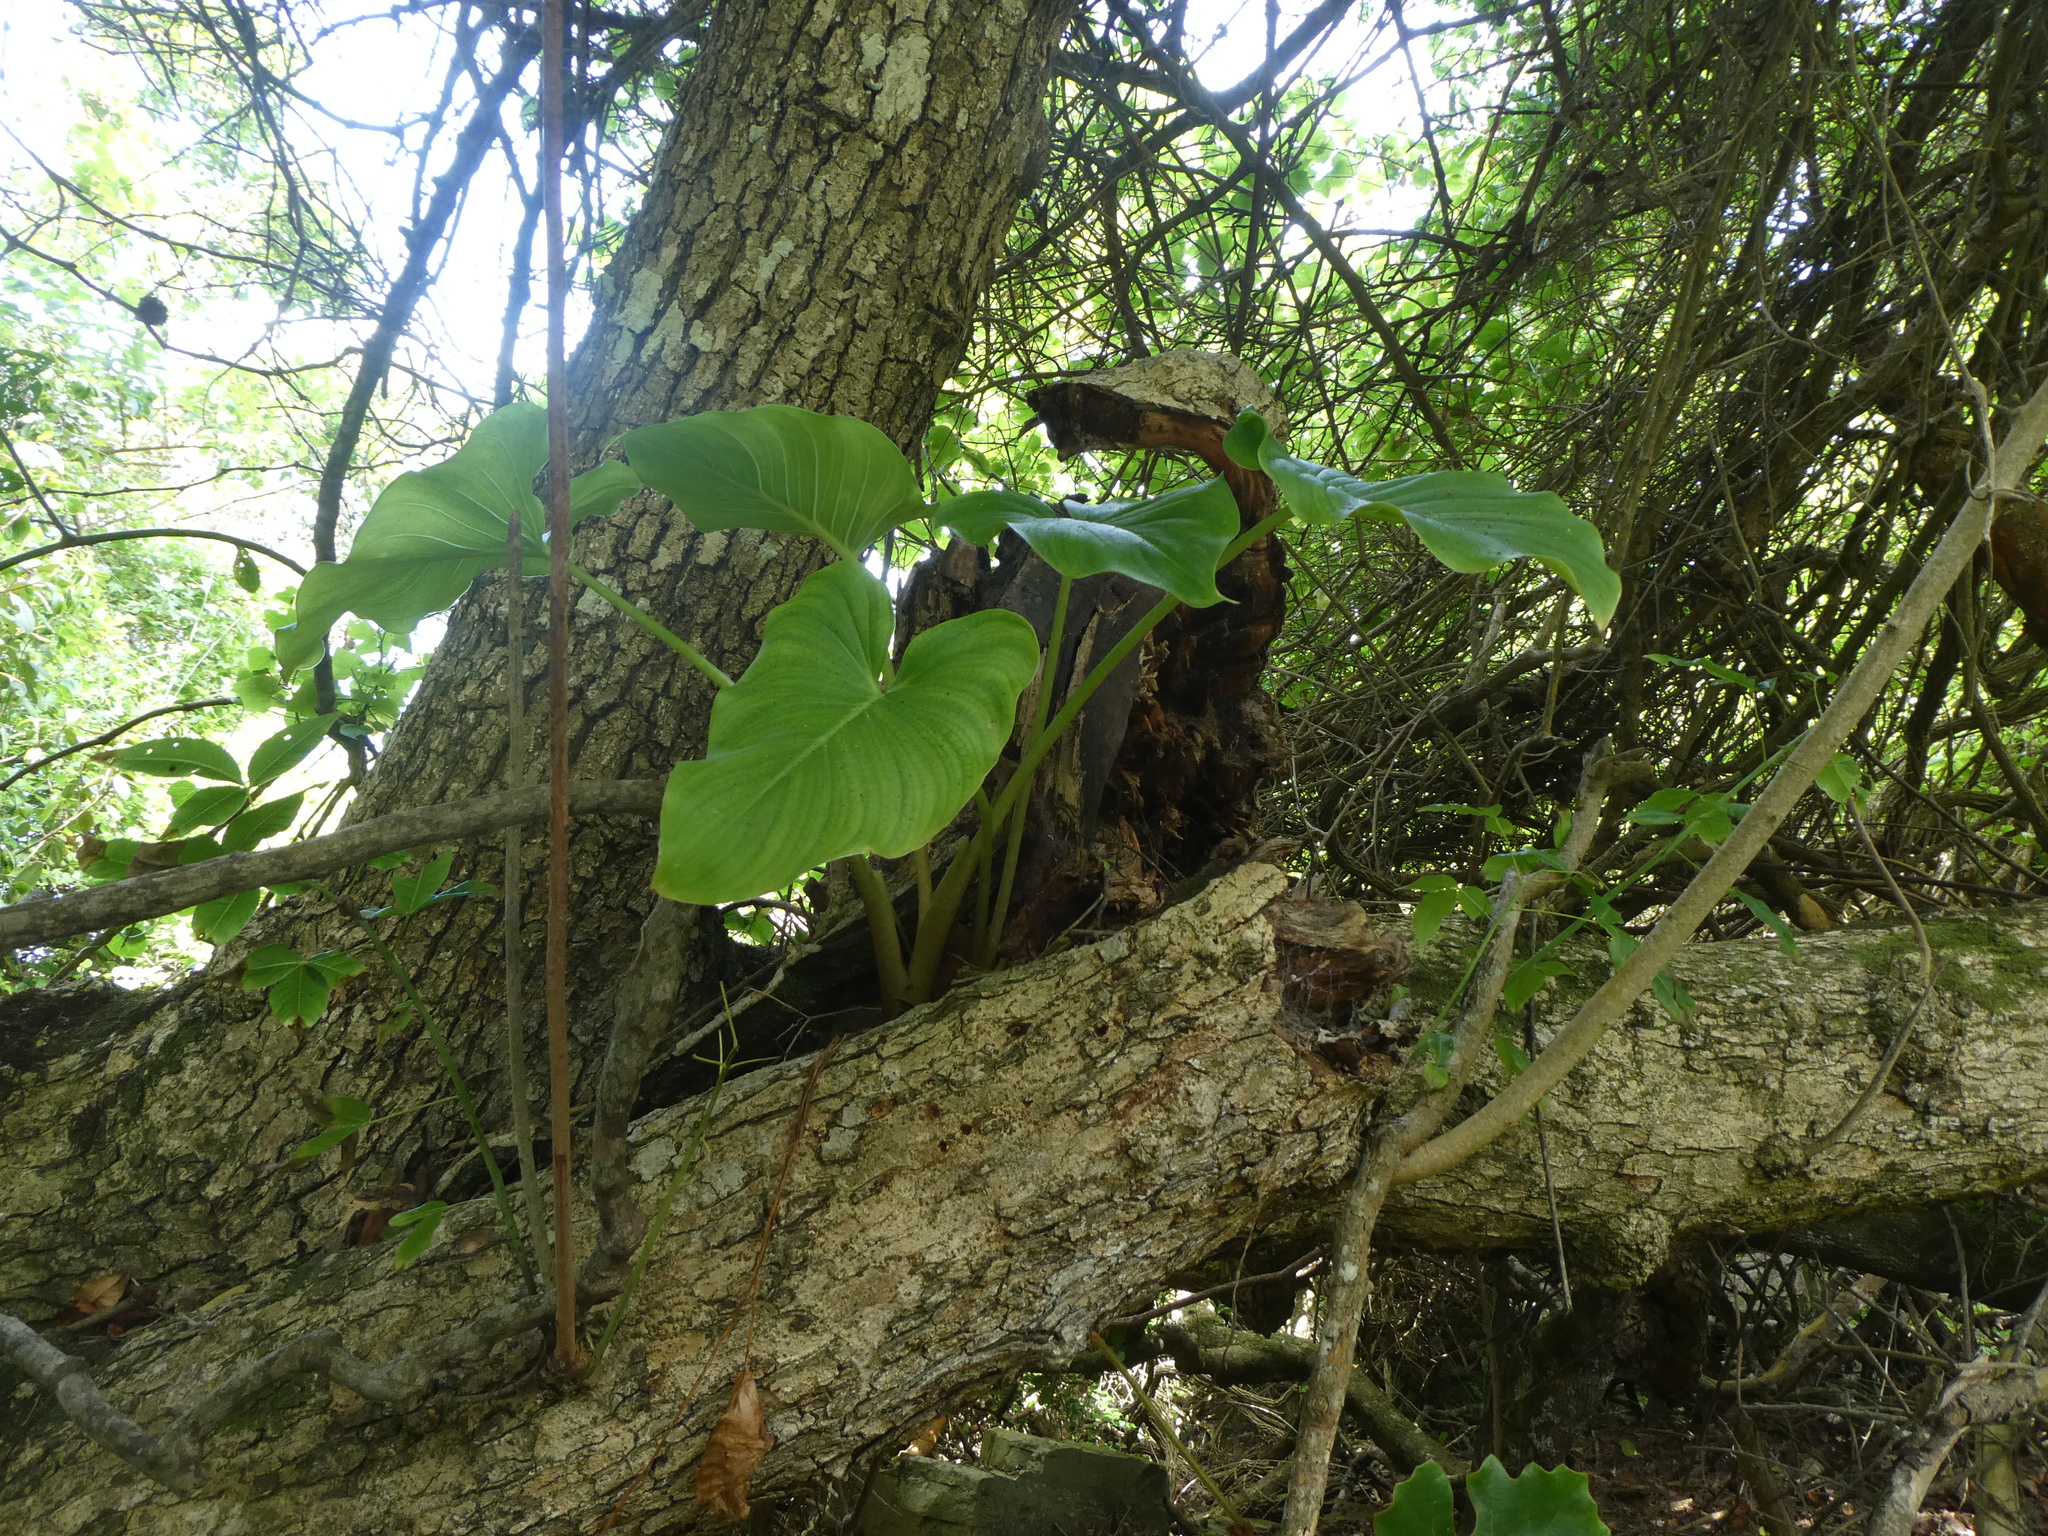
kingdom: Plantae
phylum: Tracheophyta
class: Liliopsida
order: Alismatales
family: Araceae
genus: Zantedeschia
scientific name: Zantedeschia aethiopica
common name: Altar-lily
